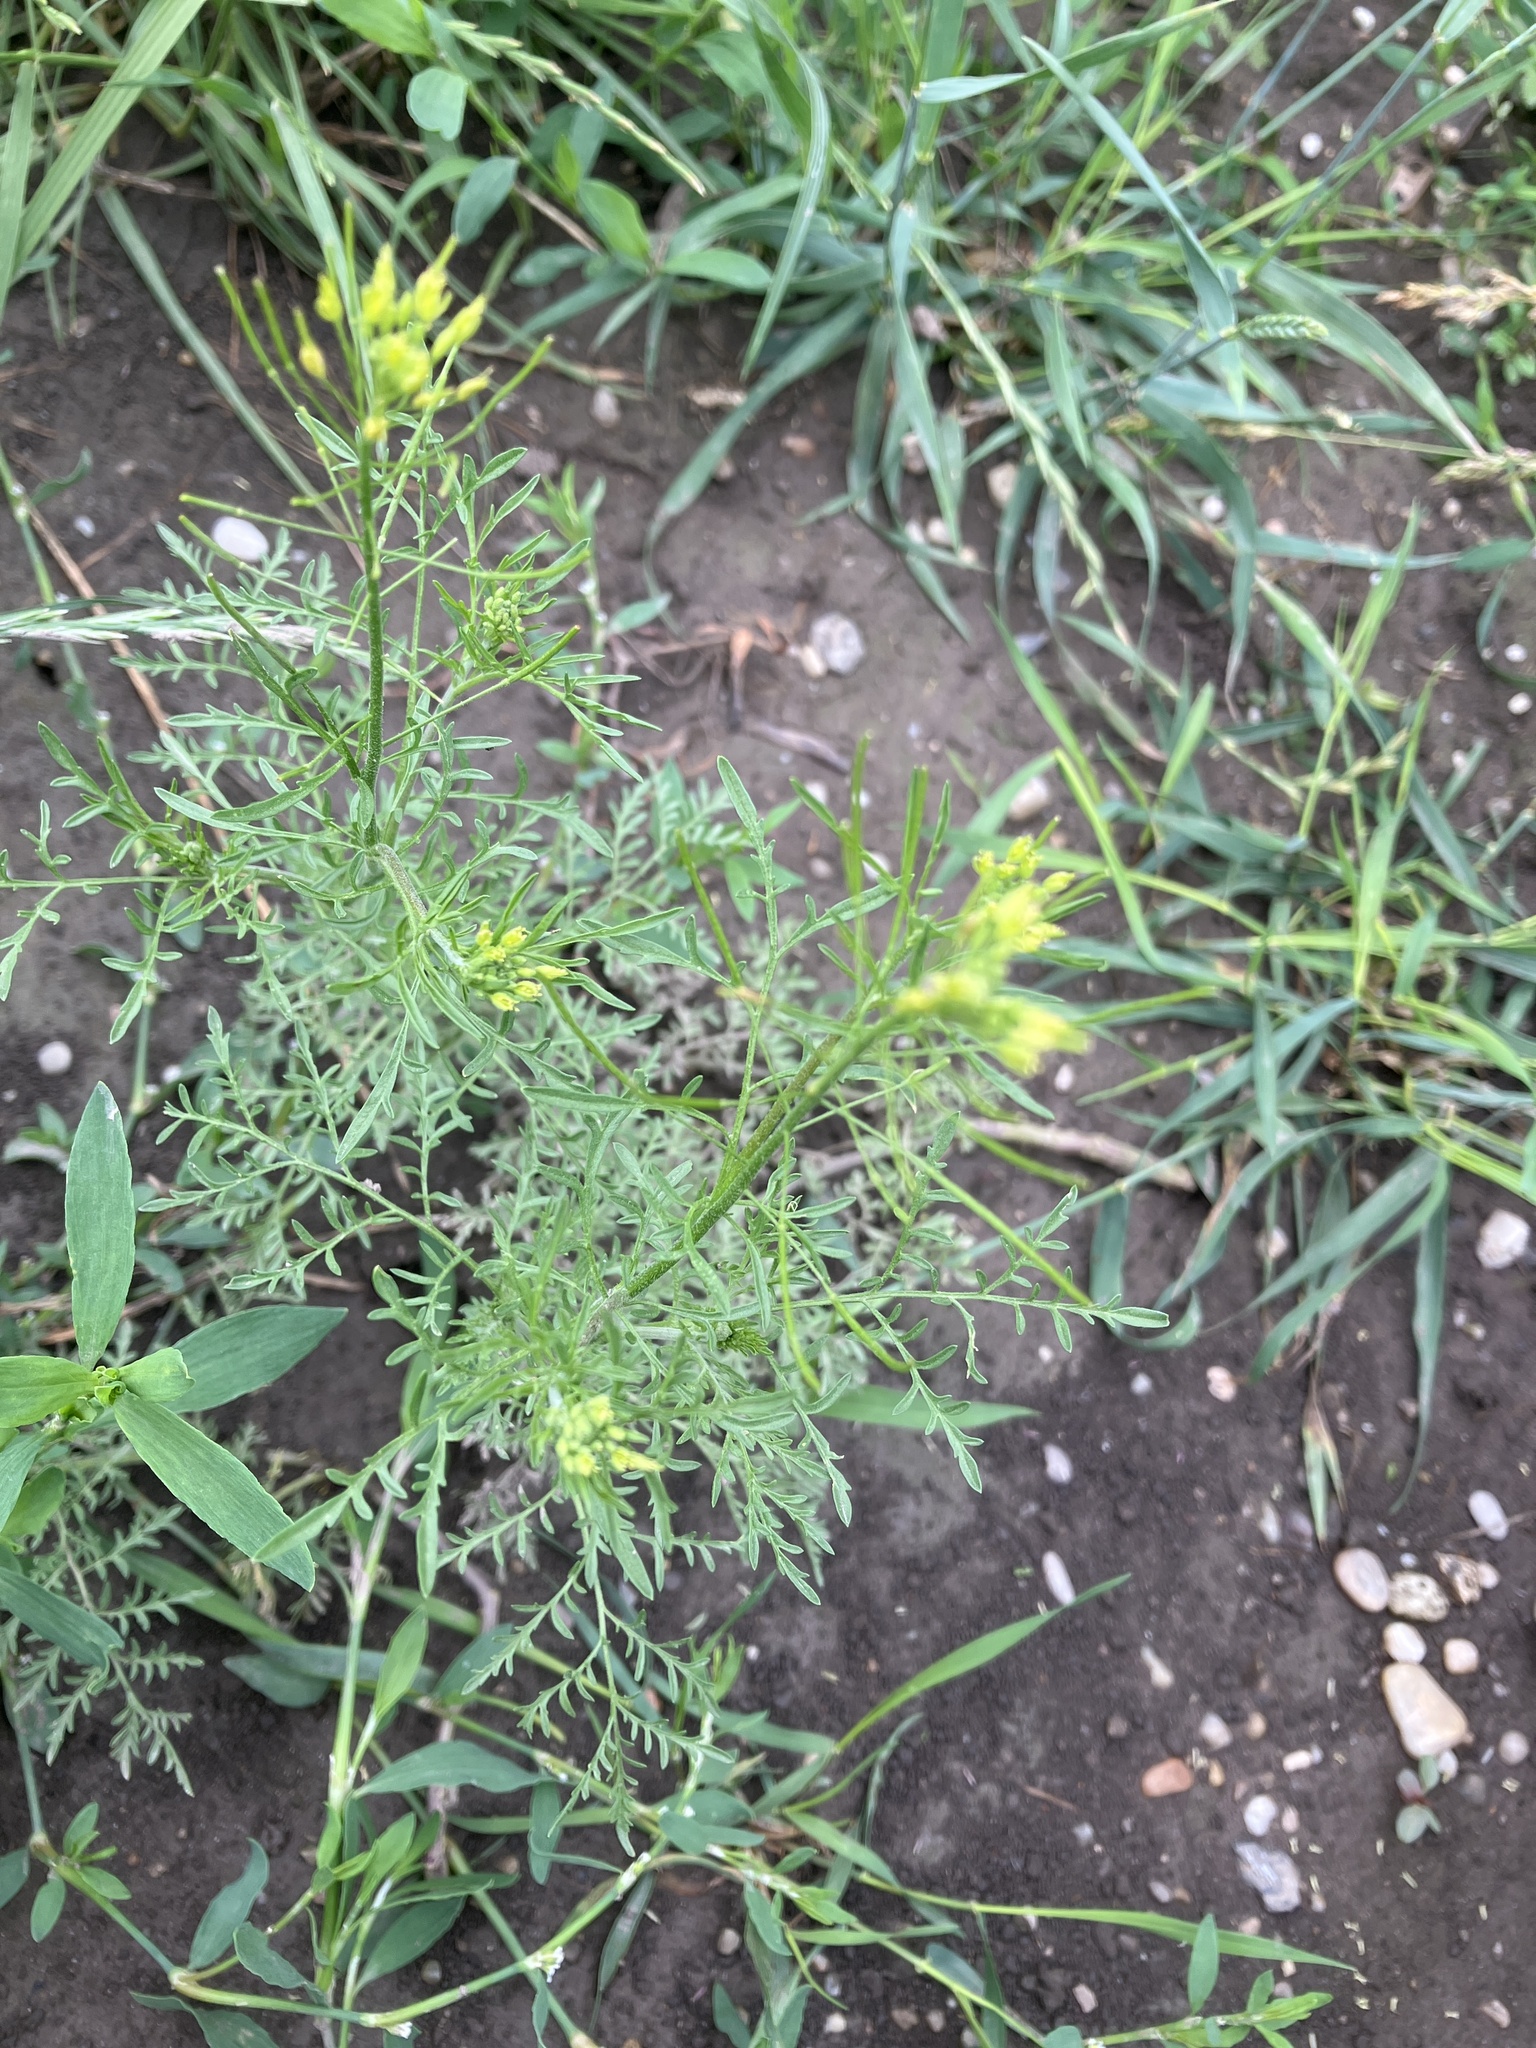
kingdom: Plantae
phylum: Tracheophyta
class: Magnoliopsida
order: Brassicales
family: Brassicaceae
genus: Descurainia
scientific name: Descurainia sophia
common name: Flixweed
